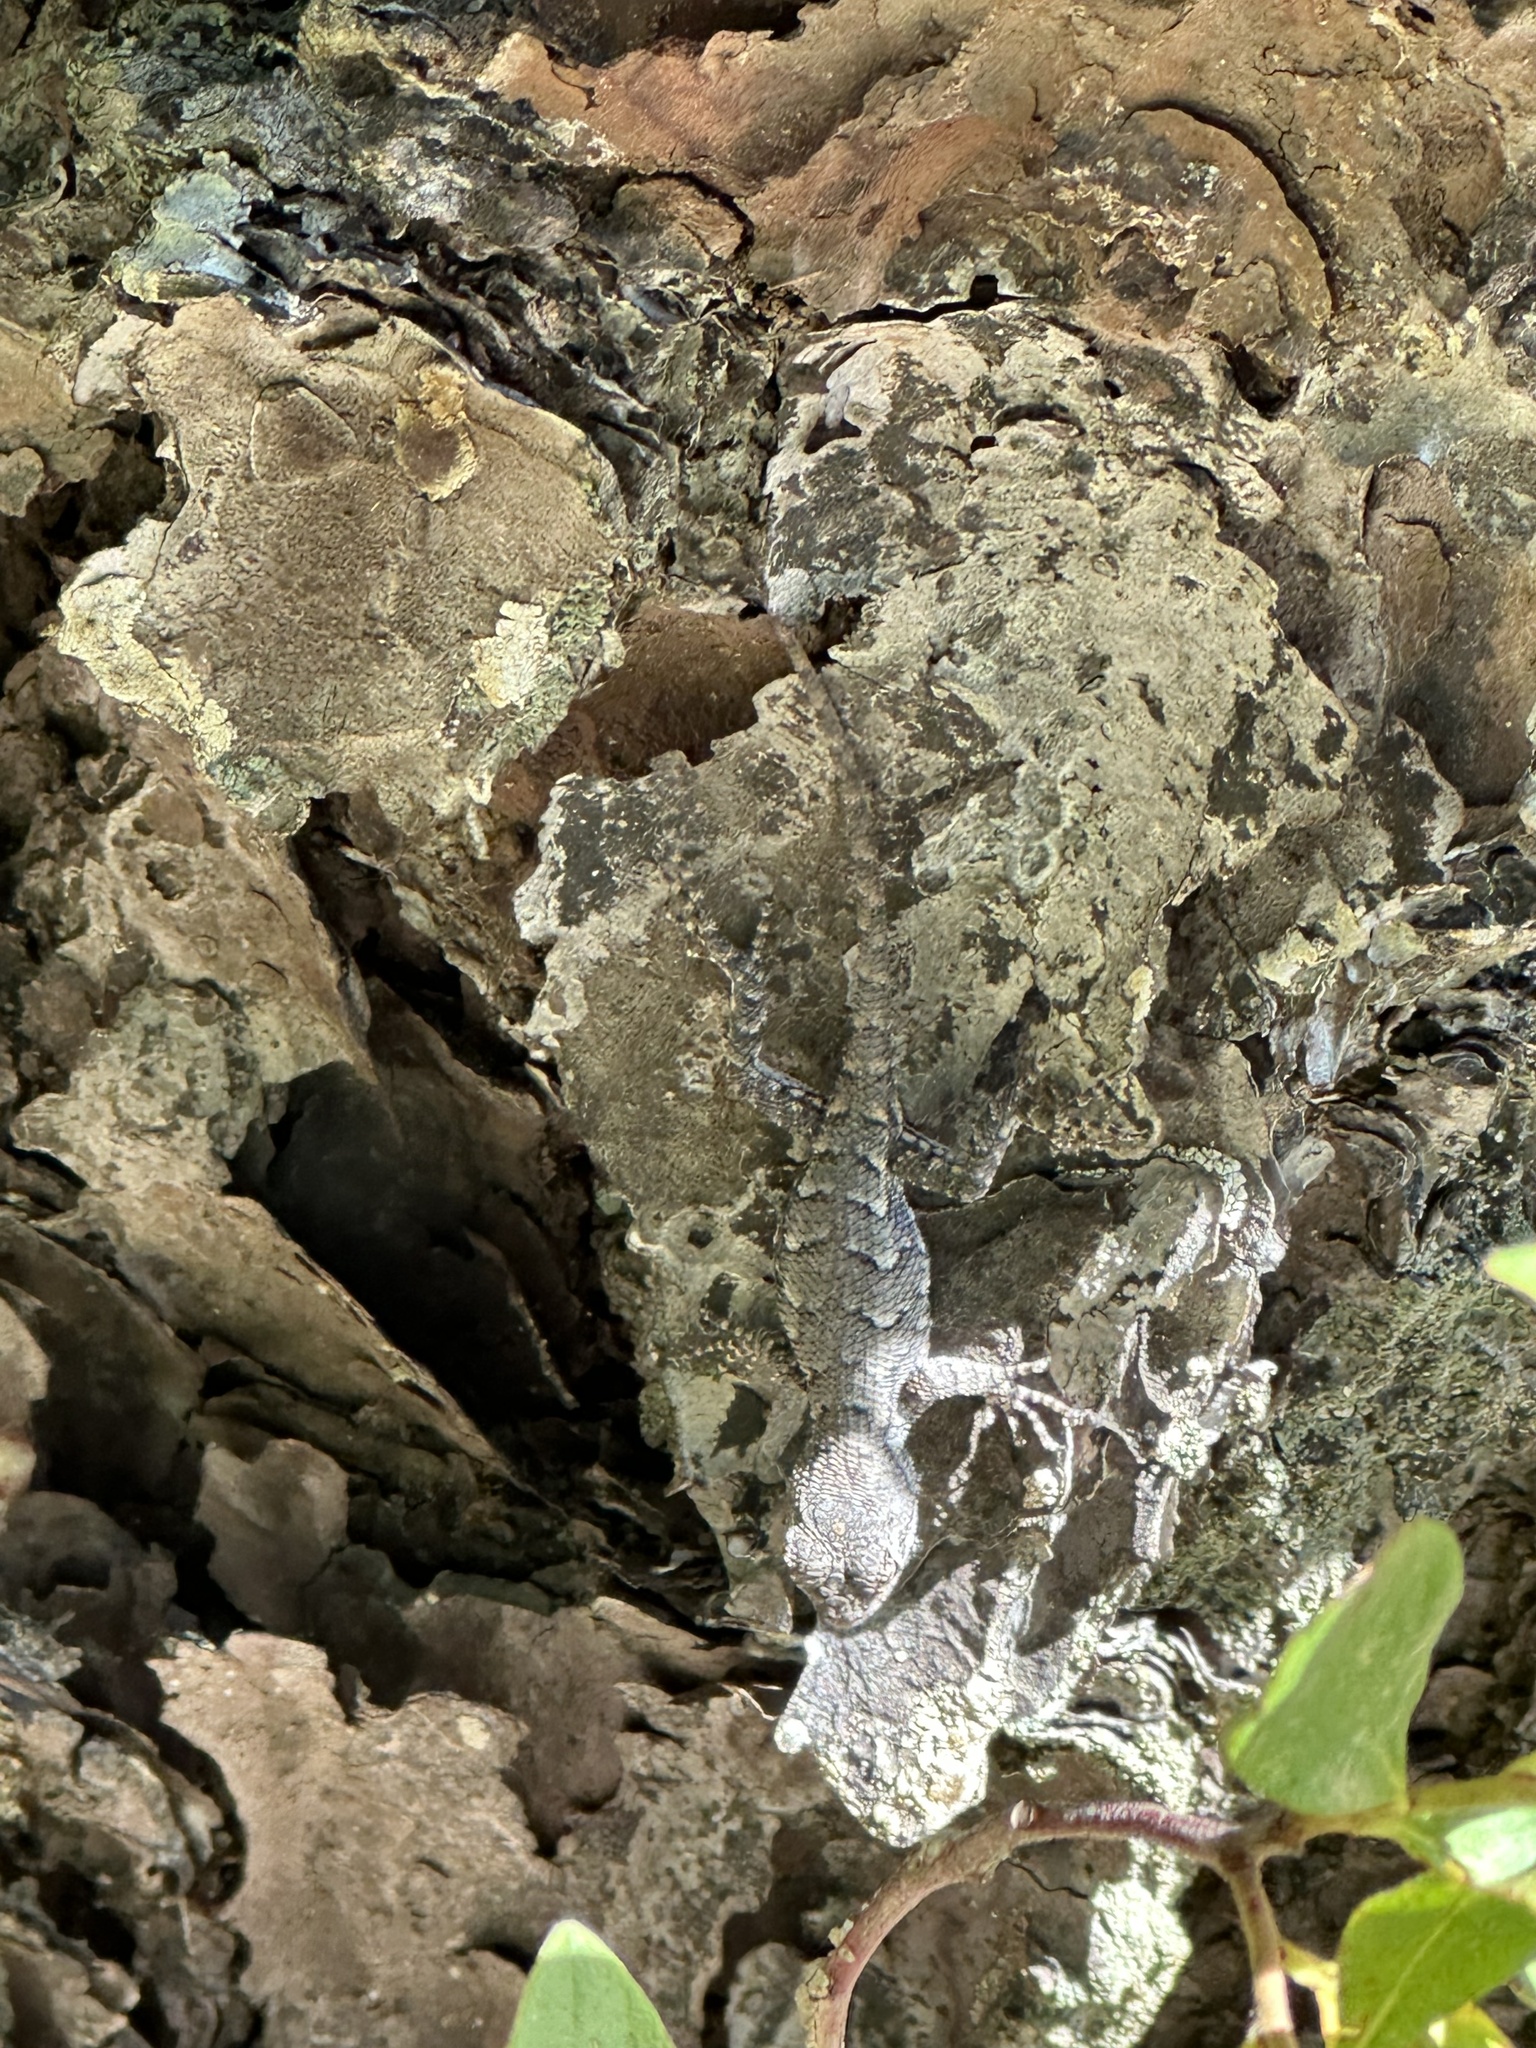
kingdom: Animalia
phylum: Chordata
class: Squamata
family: Phrynosomatidae
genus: Sceloporus
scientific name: Sceloporus undulatus
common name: Eastern fence lizard
